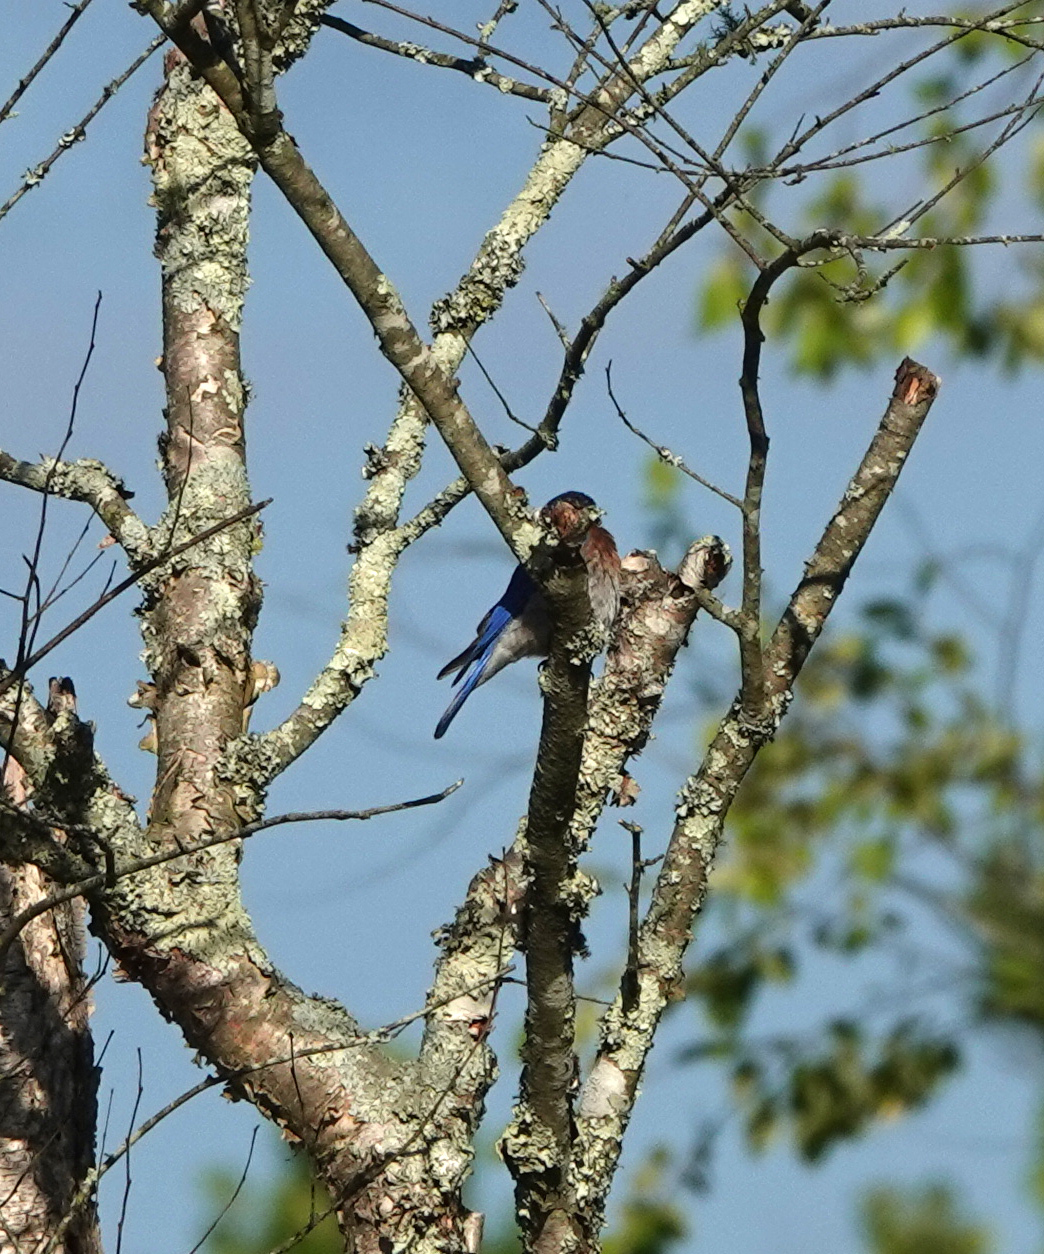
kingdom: Animalia
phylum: Chordata
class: Aves
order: Passeriformes
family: Turdidae
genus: Sialia
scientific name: Sialia sialis
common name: Eastern bluebird
